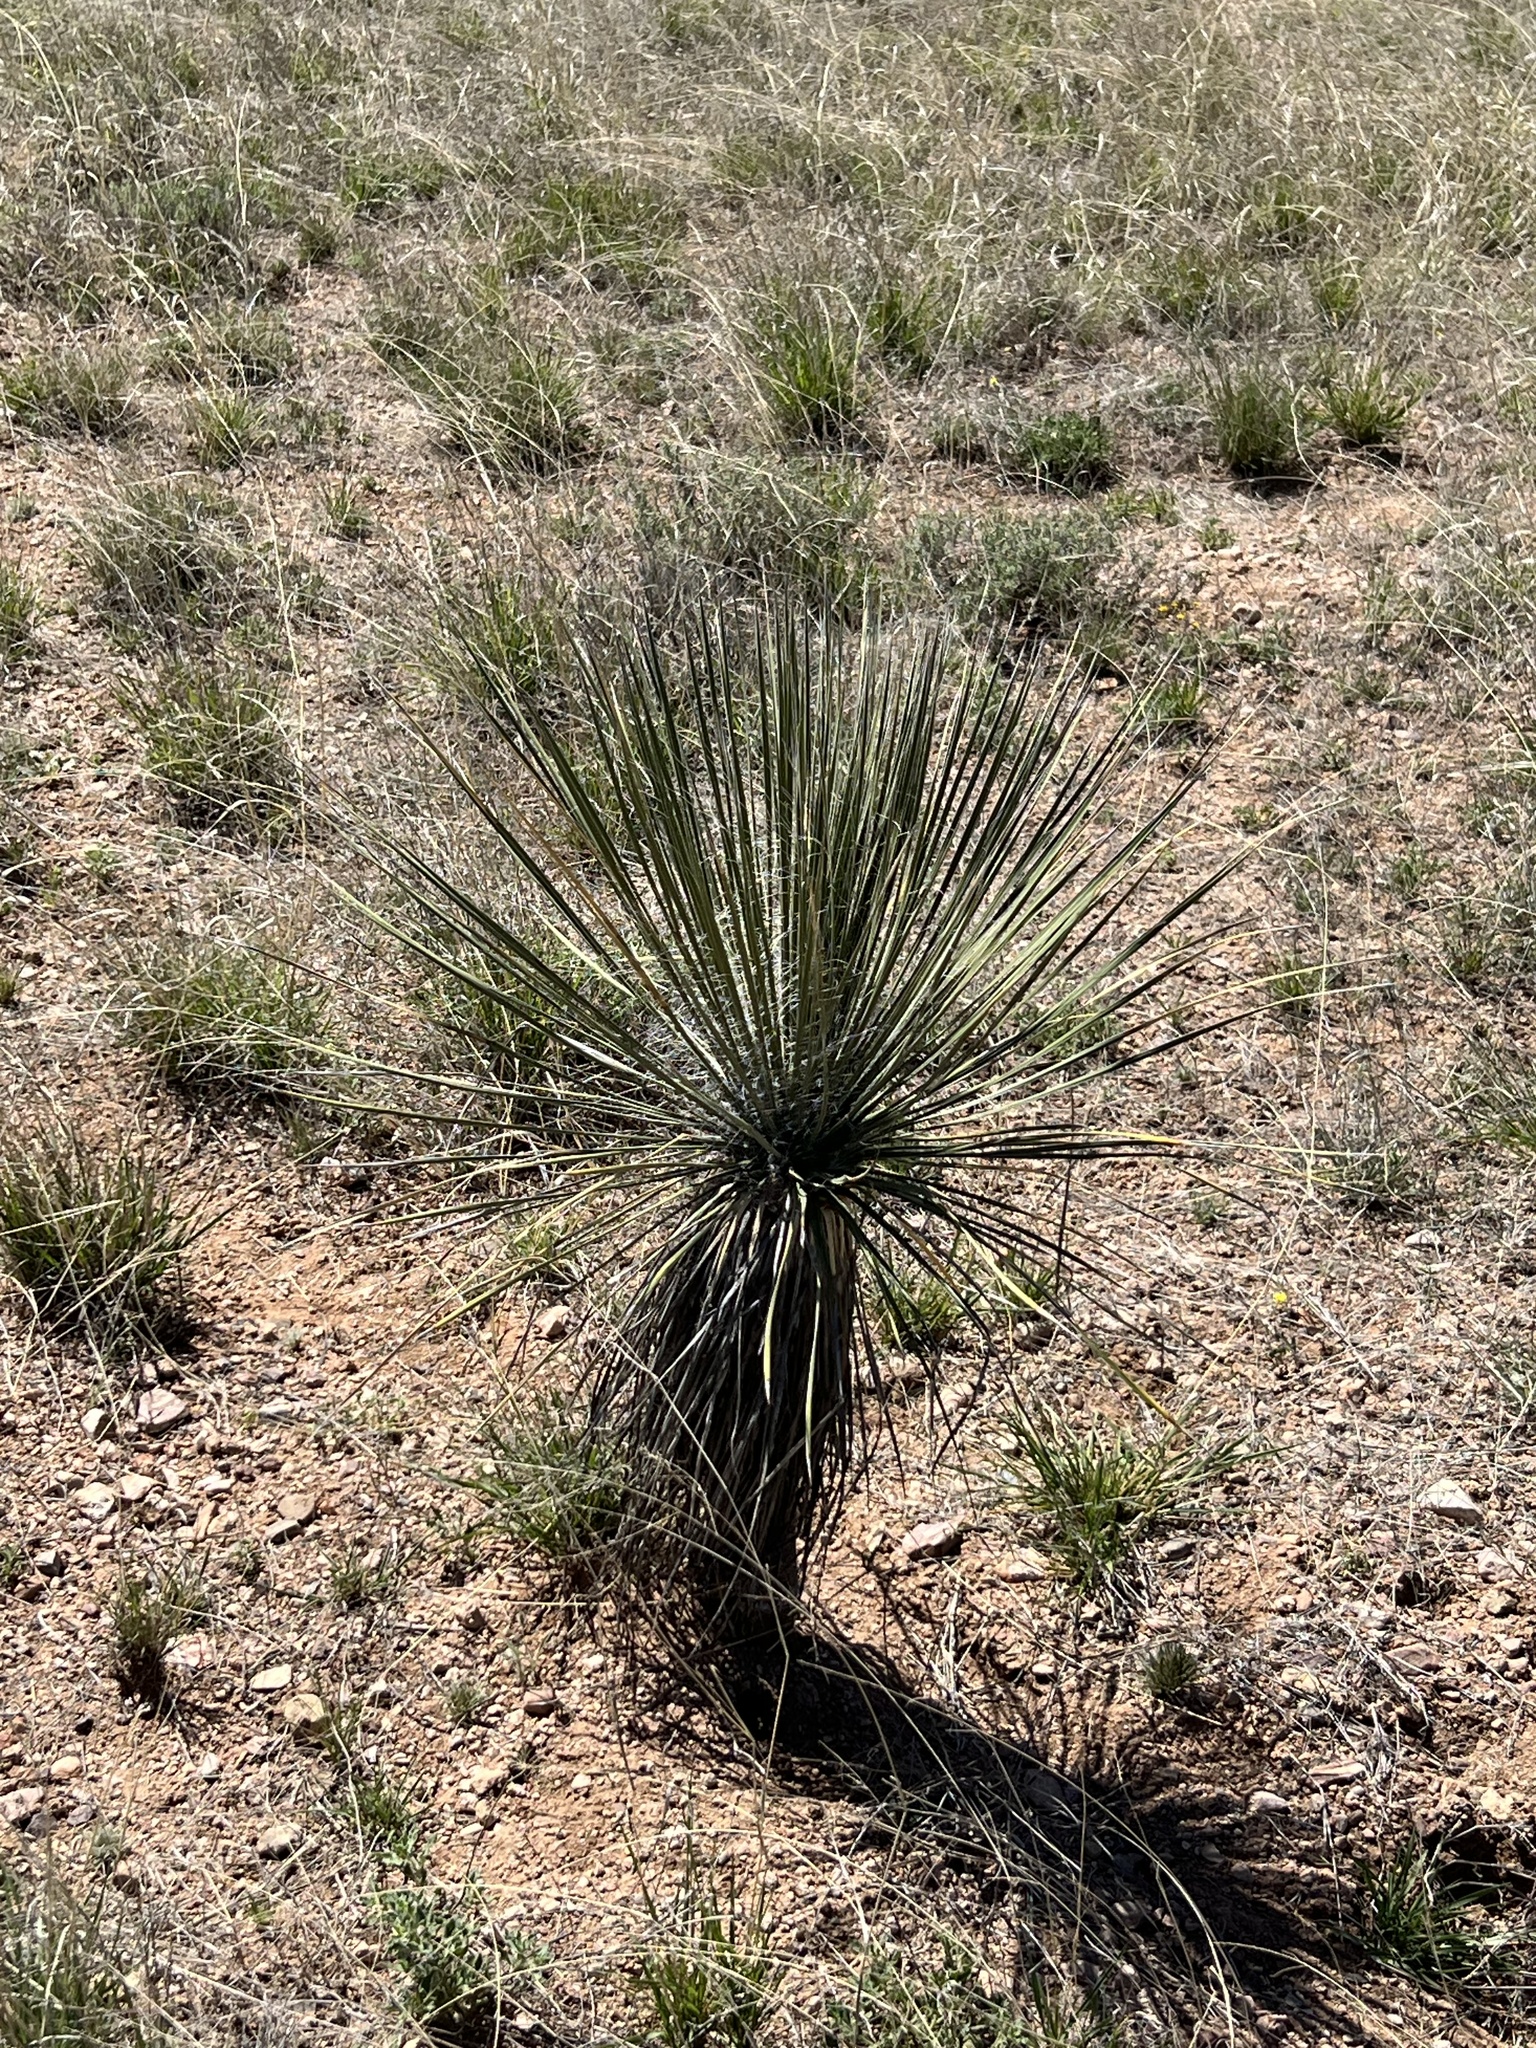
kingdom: Plantae
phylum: Tracheophyta
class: Liliopsida
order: Asparagales
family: Asparagaceae
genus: Yucca
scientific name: Yucca elata
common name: Palmella
